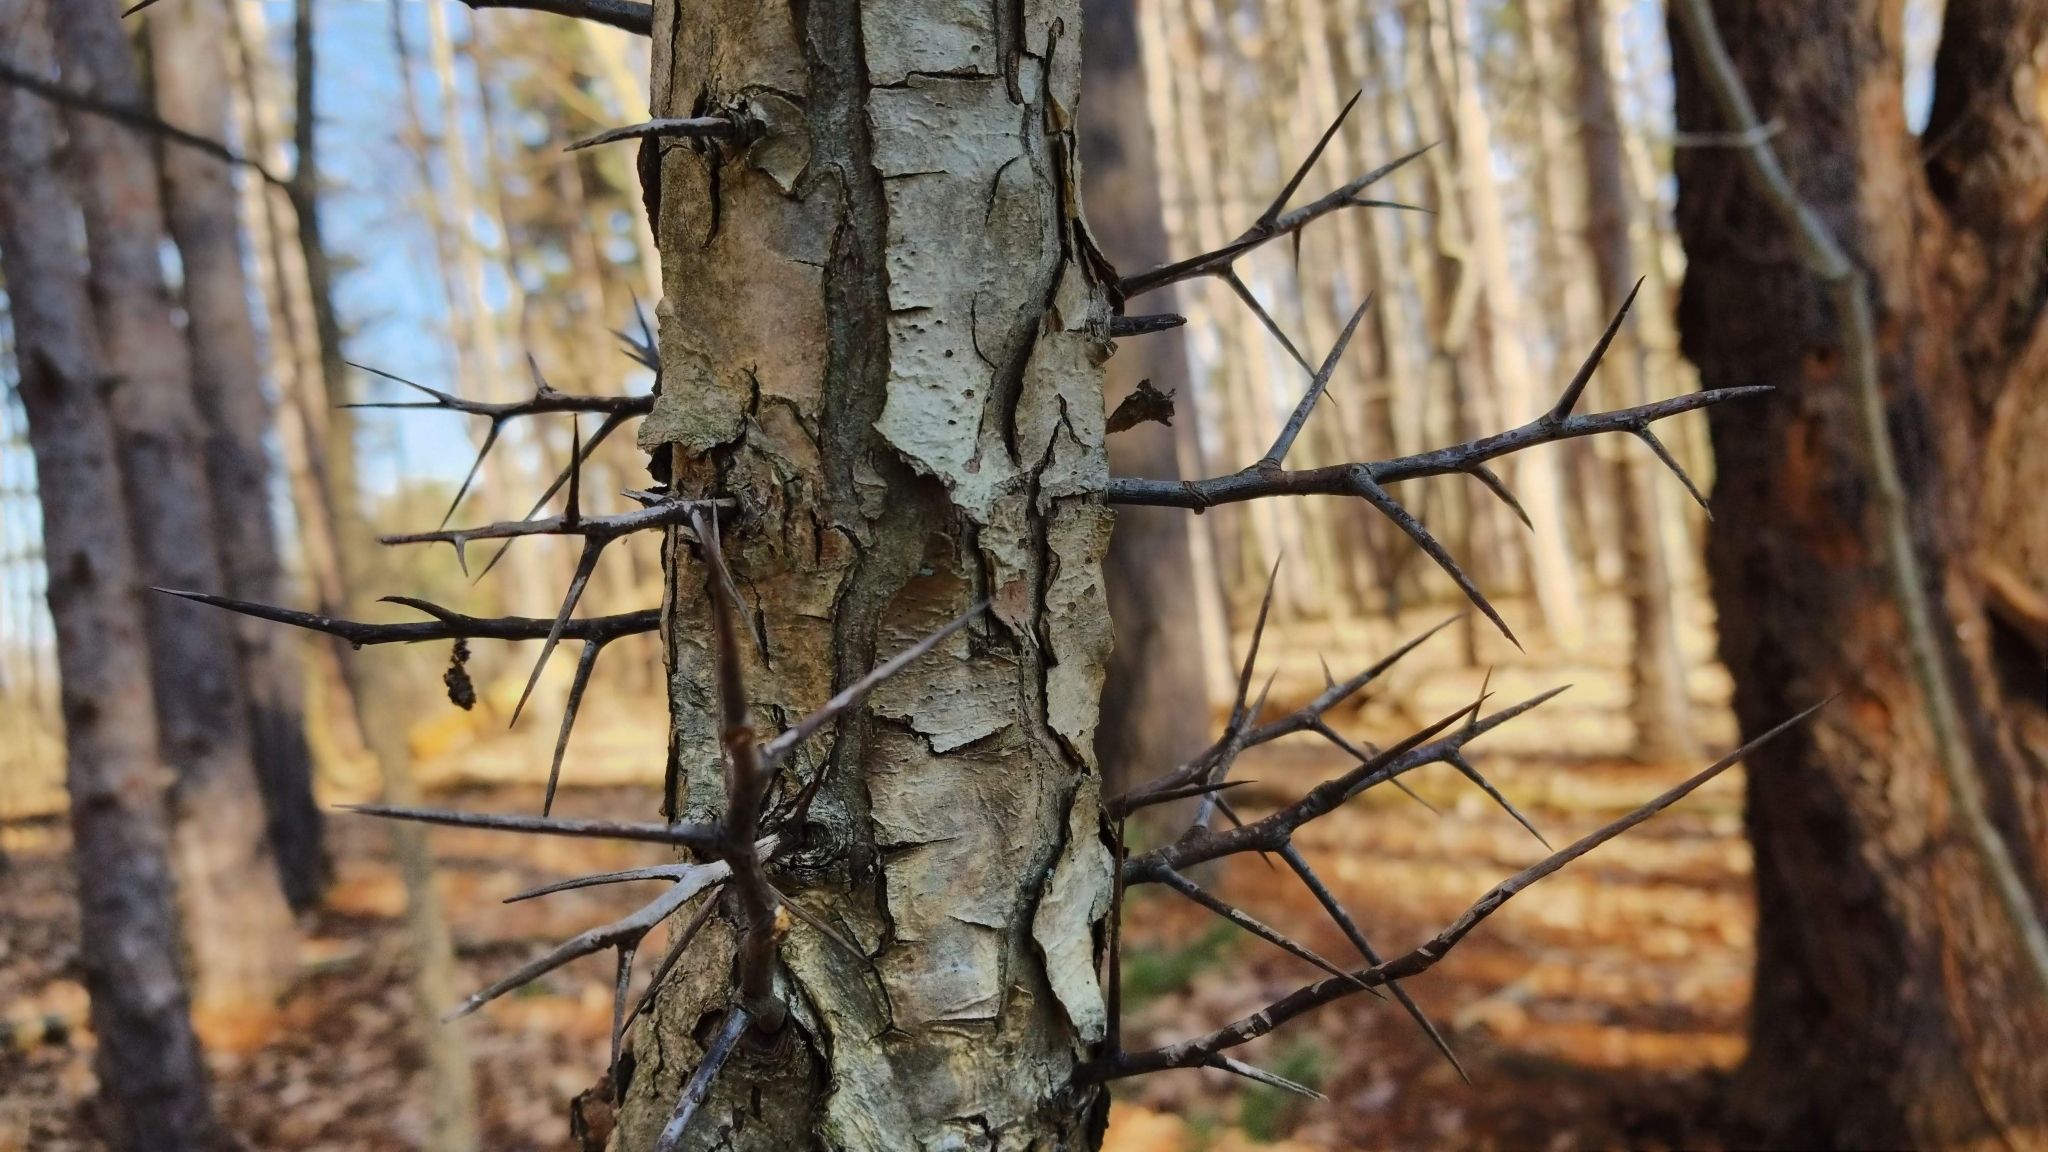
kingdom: Plantae
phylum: Tracheophyta
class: Magnoliopsida
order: Fabales
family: Fabaceae
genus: Gleditsia
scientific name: Gleditsia triacanthos
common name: Common honeylocust
